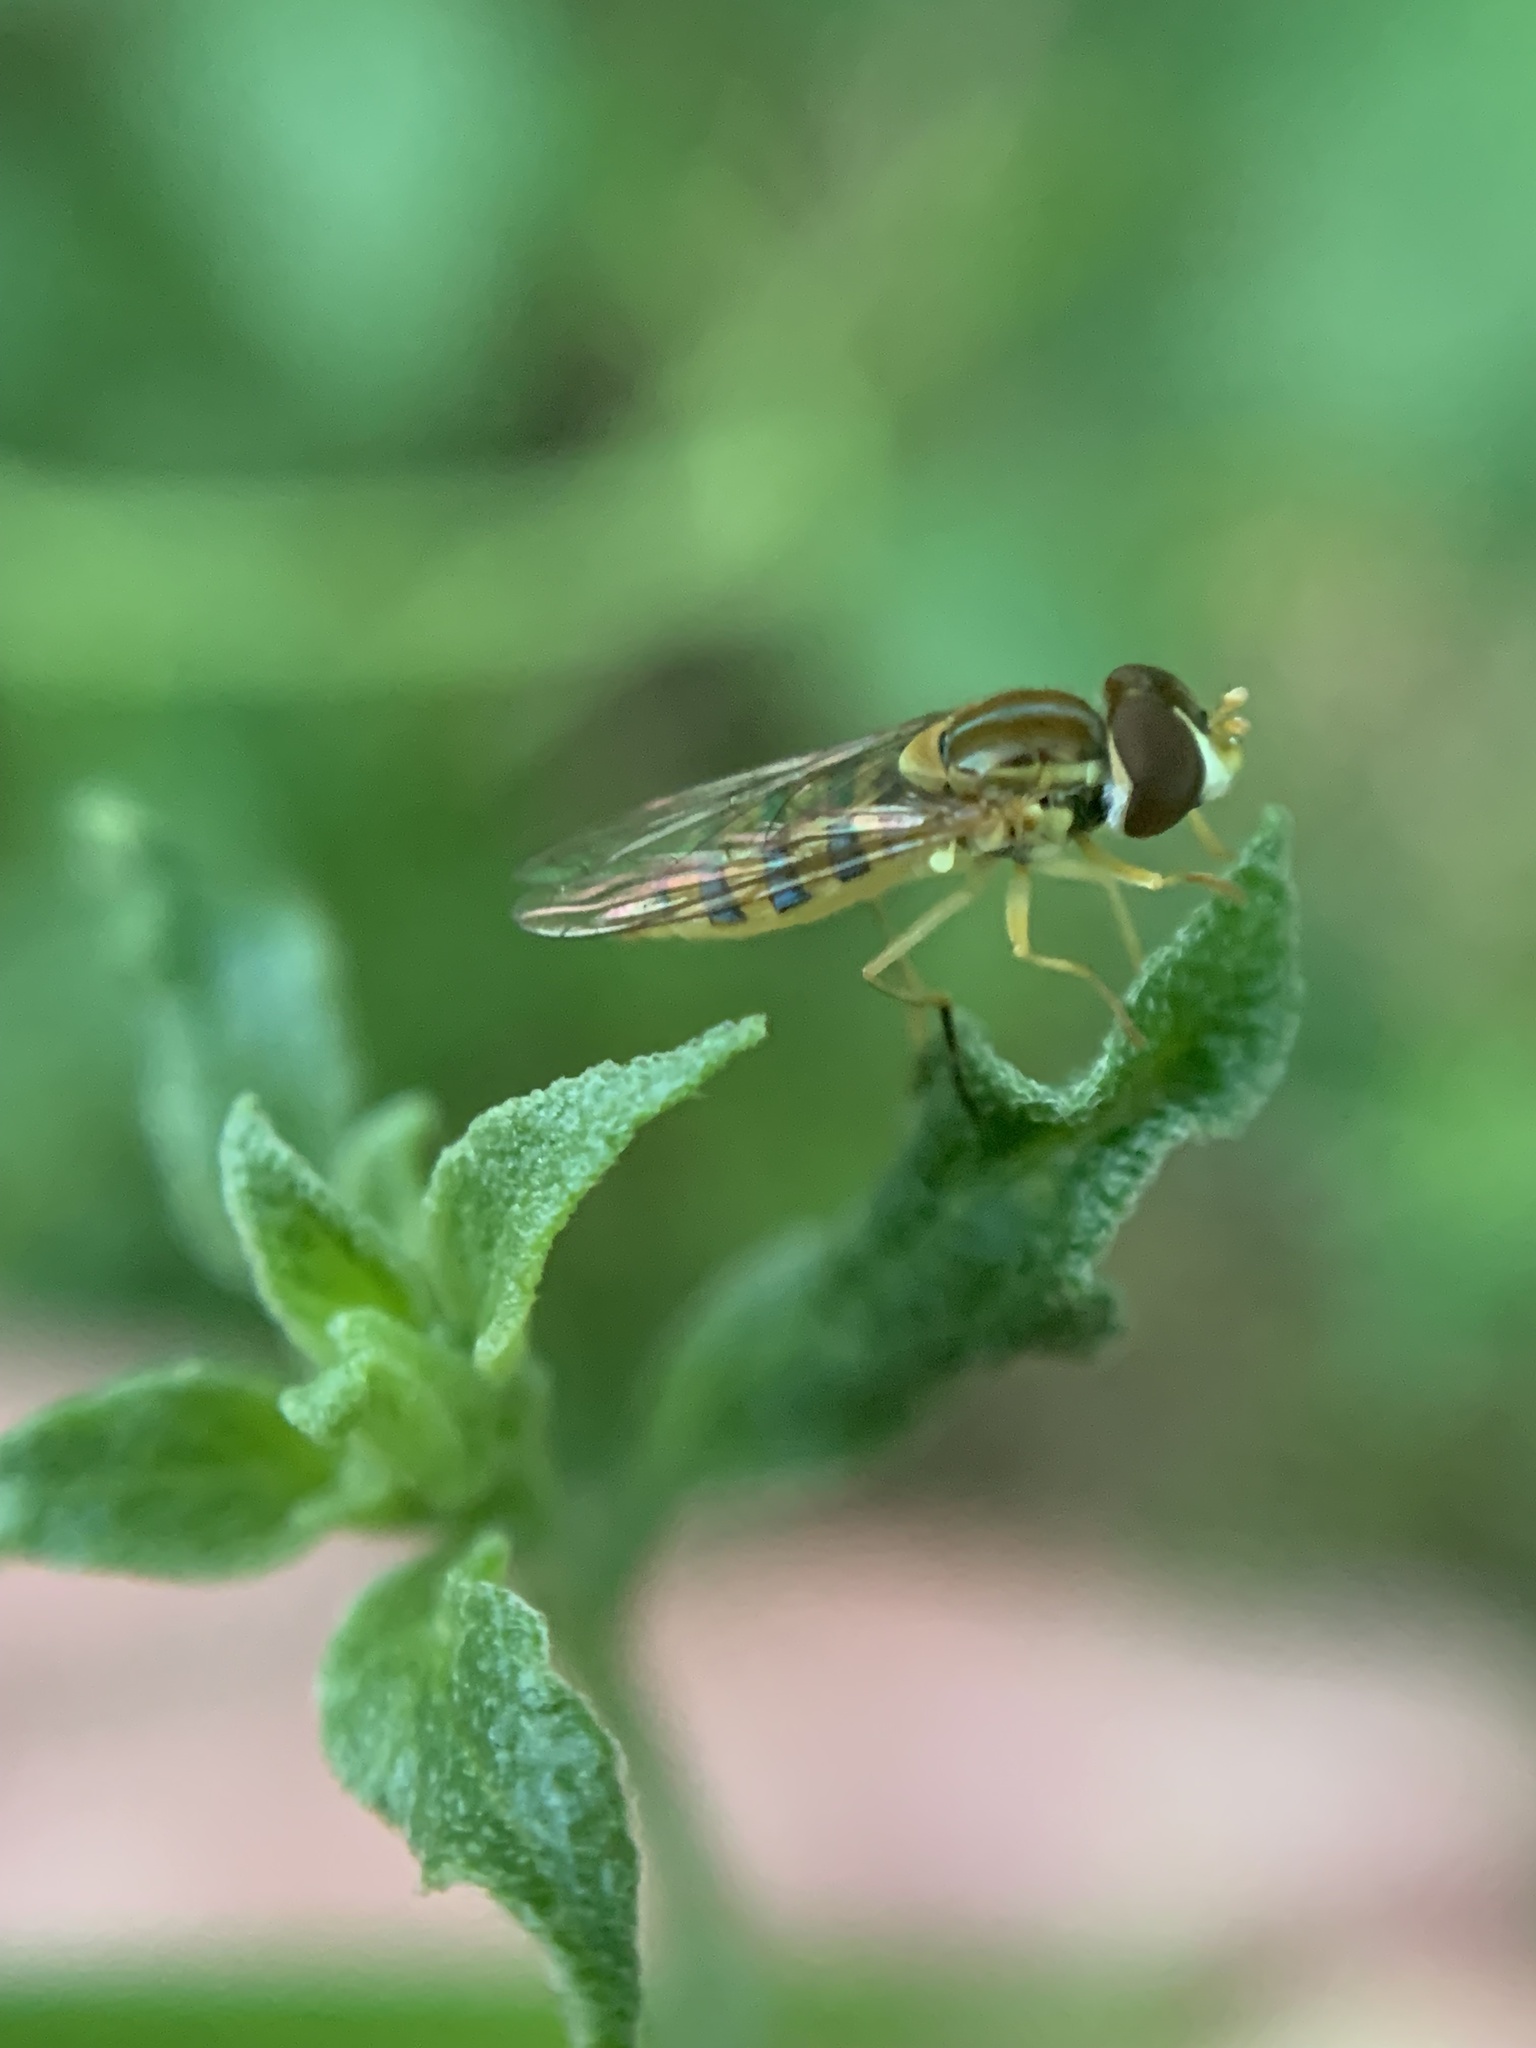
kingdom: Animalia
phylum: Arthropoda
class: Insecta
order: Diptera
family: Syrphidae
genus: Toxomerus
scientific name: Toxomerus
